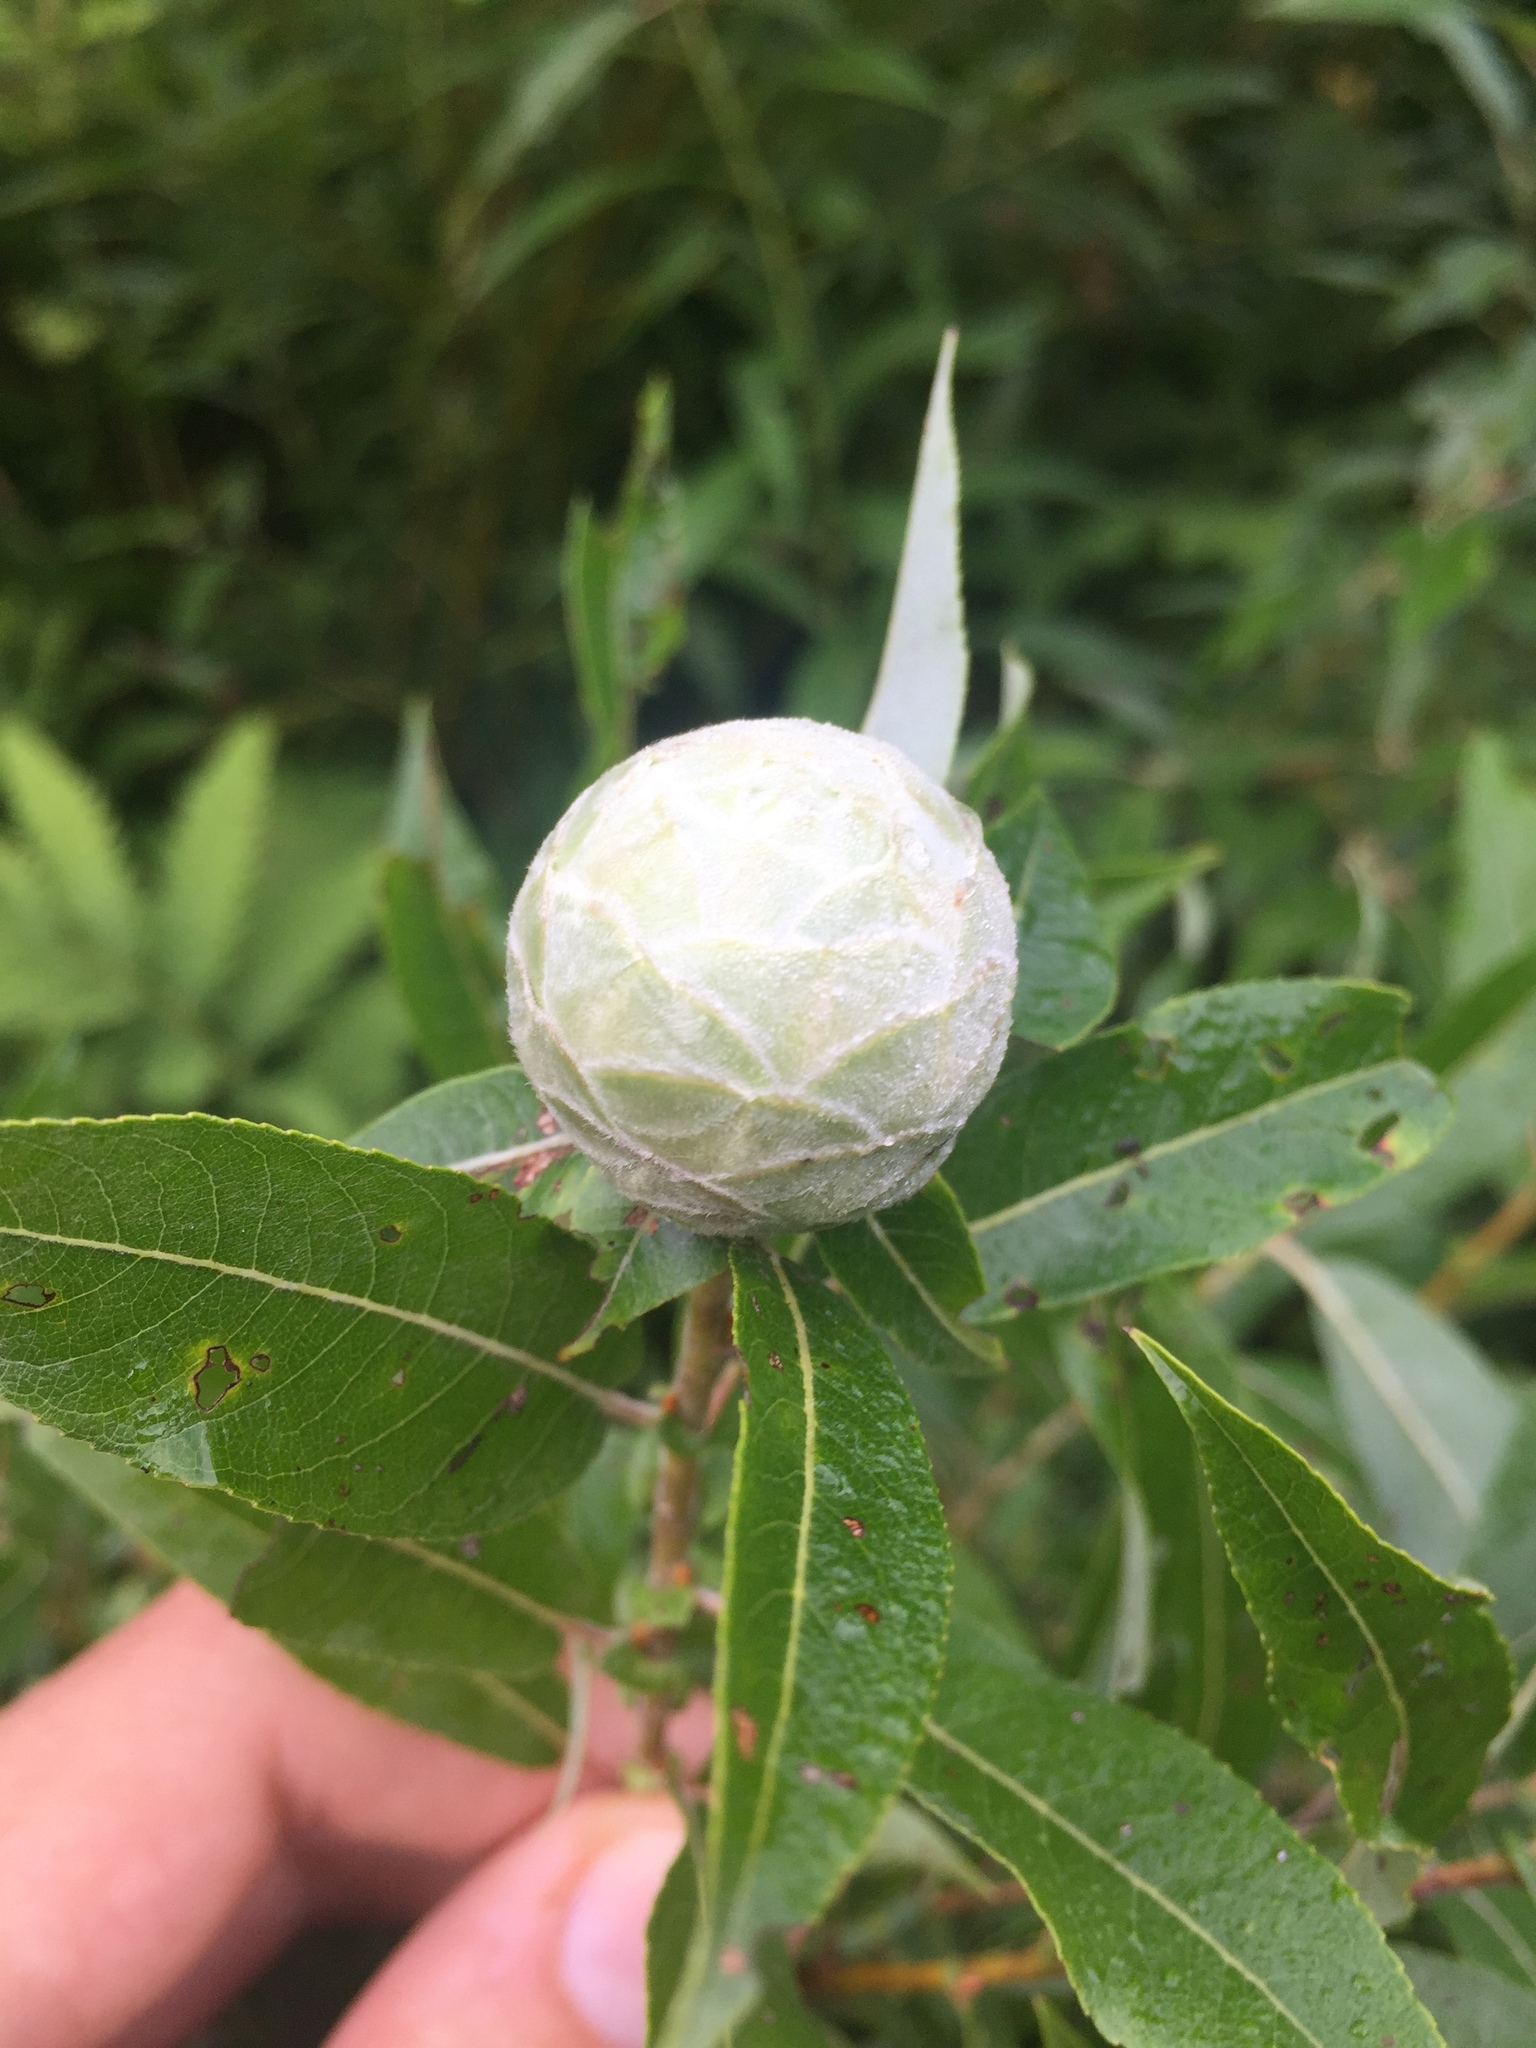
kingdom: Animalia
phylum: Arthropoda
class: Insecta
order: Diptera
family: Cecidomyiidae
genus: Rabdophaga
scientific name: Rabdophaga strobiloides
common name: Willow pinecone gall midge
